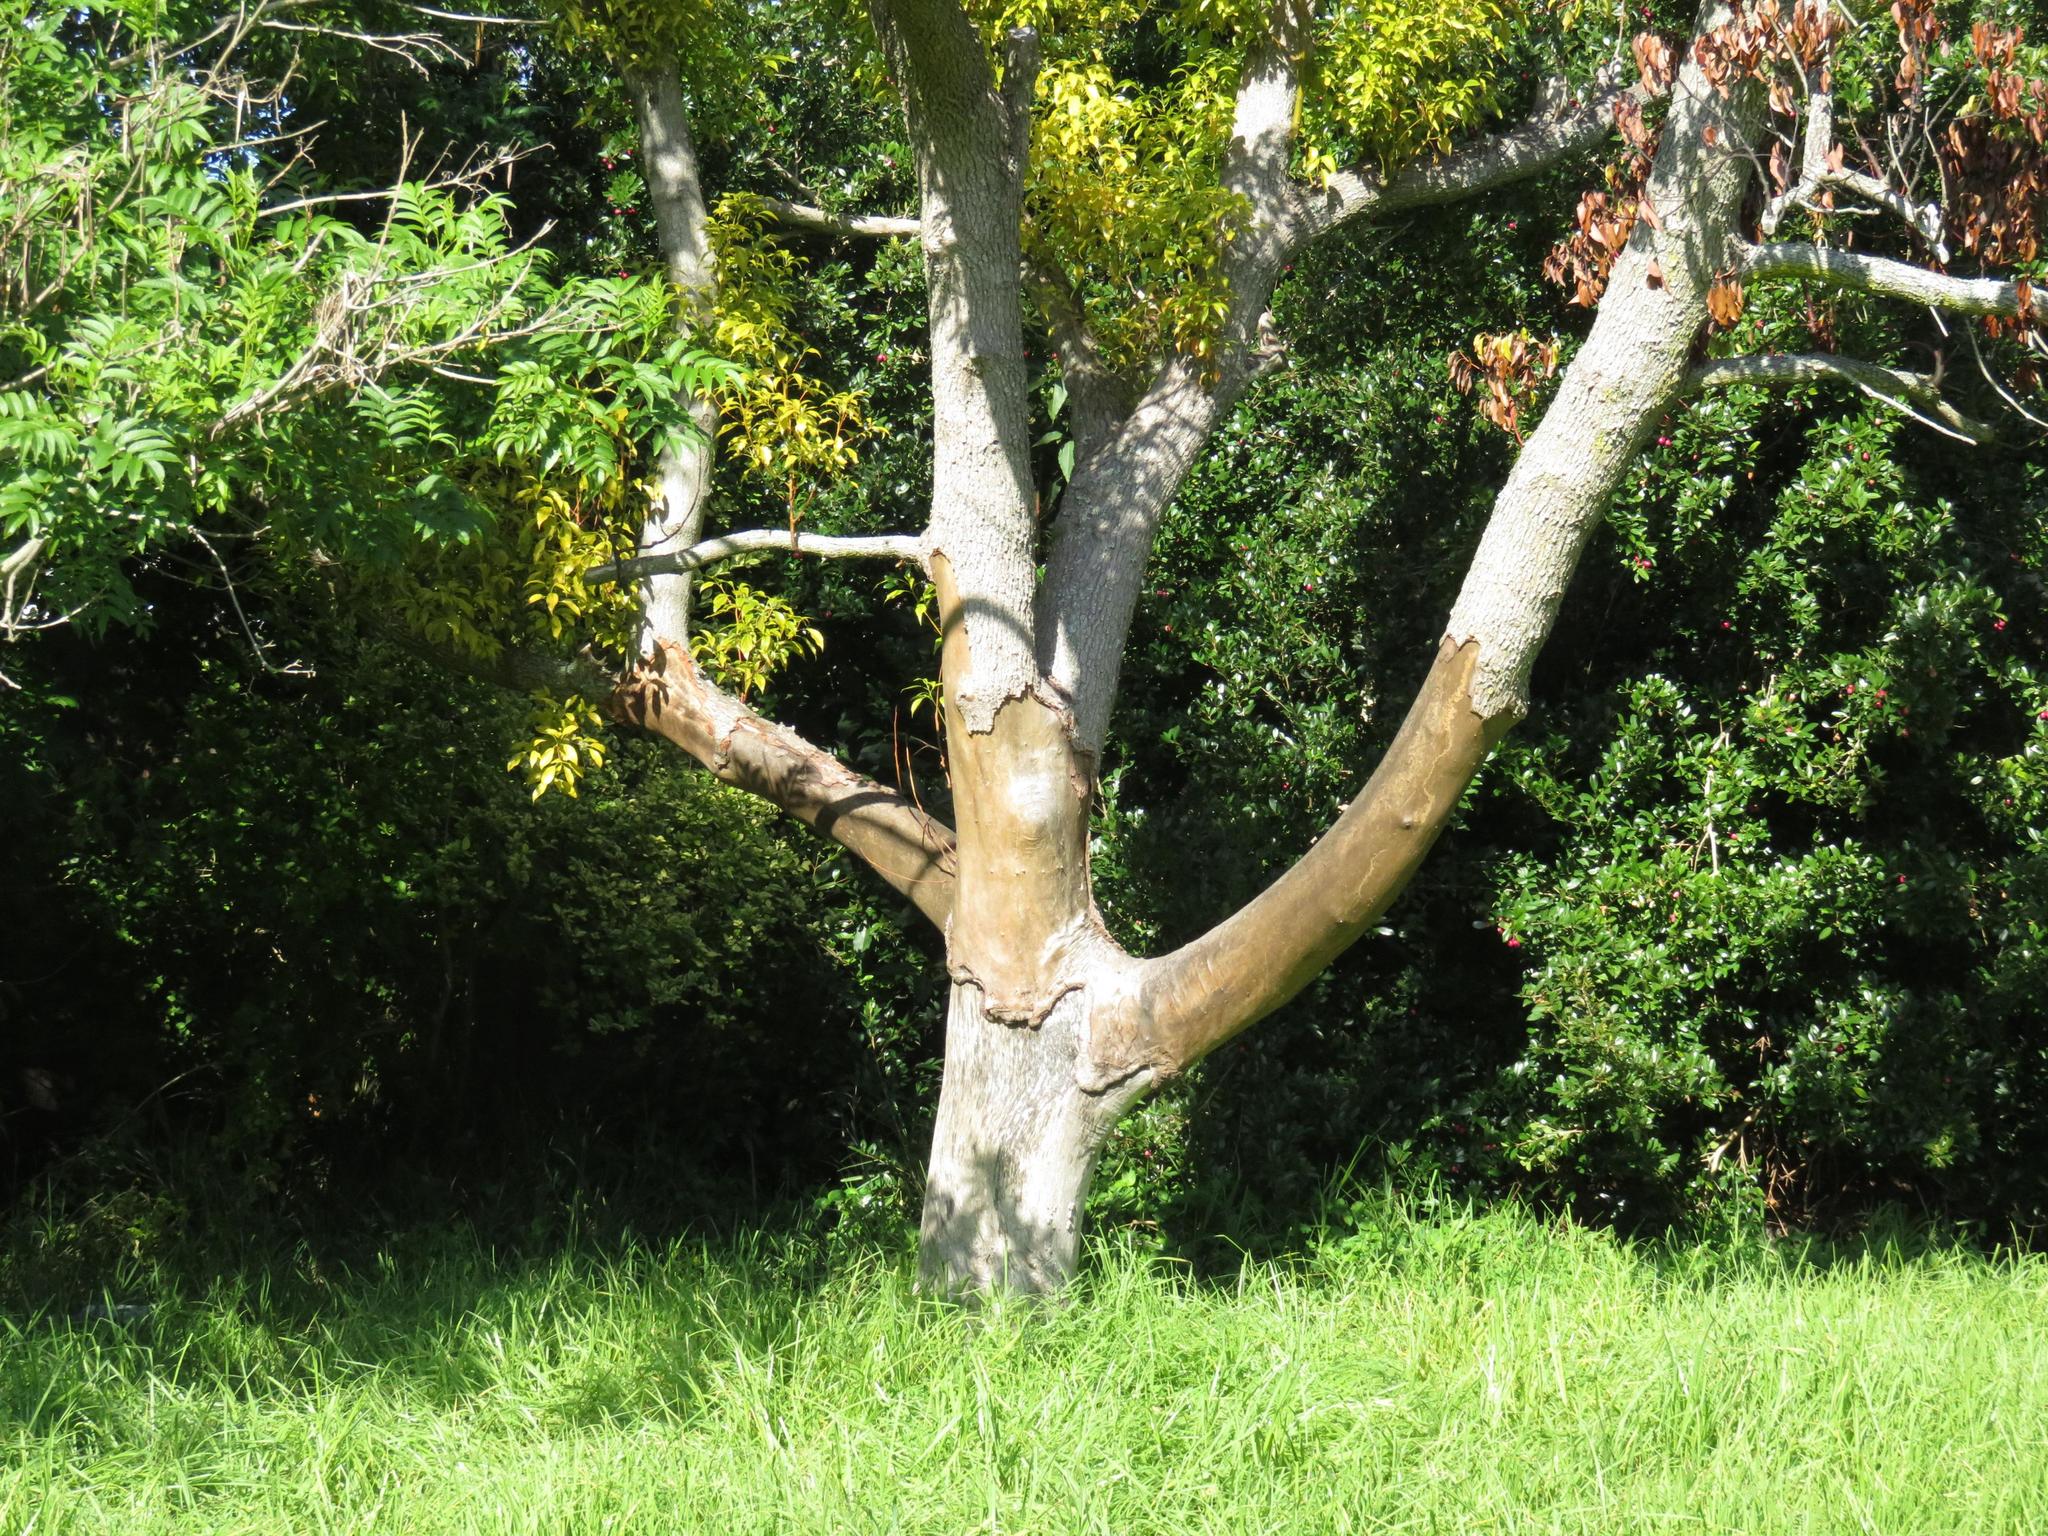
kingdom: Plantae
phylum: Tracheophyta
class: Magnoliopsida
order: Laurales
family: Lauraceae
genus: Cinnamomum
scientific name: Cinnamomum camphora
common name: Camphortree
